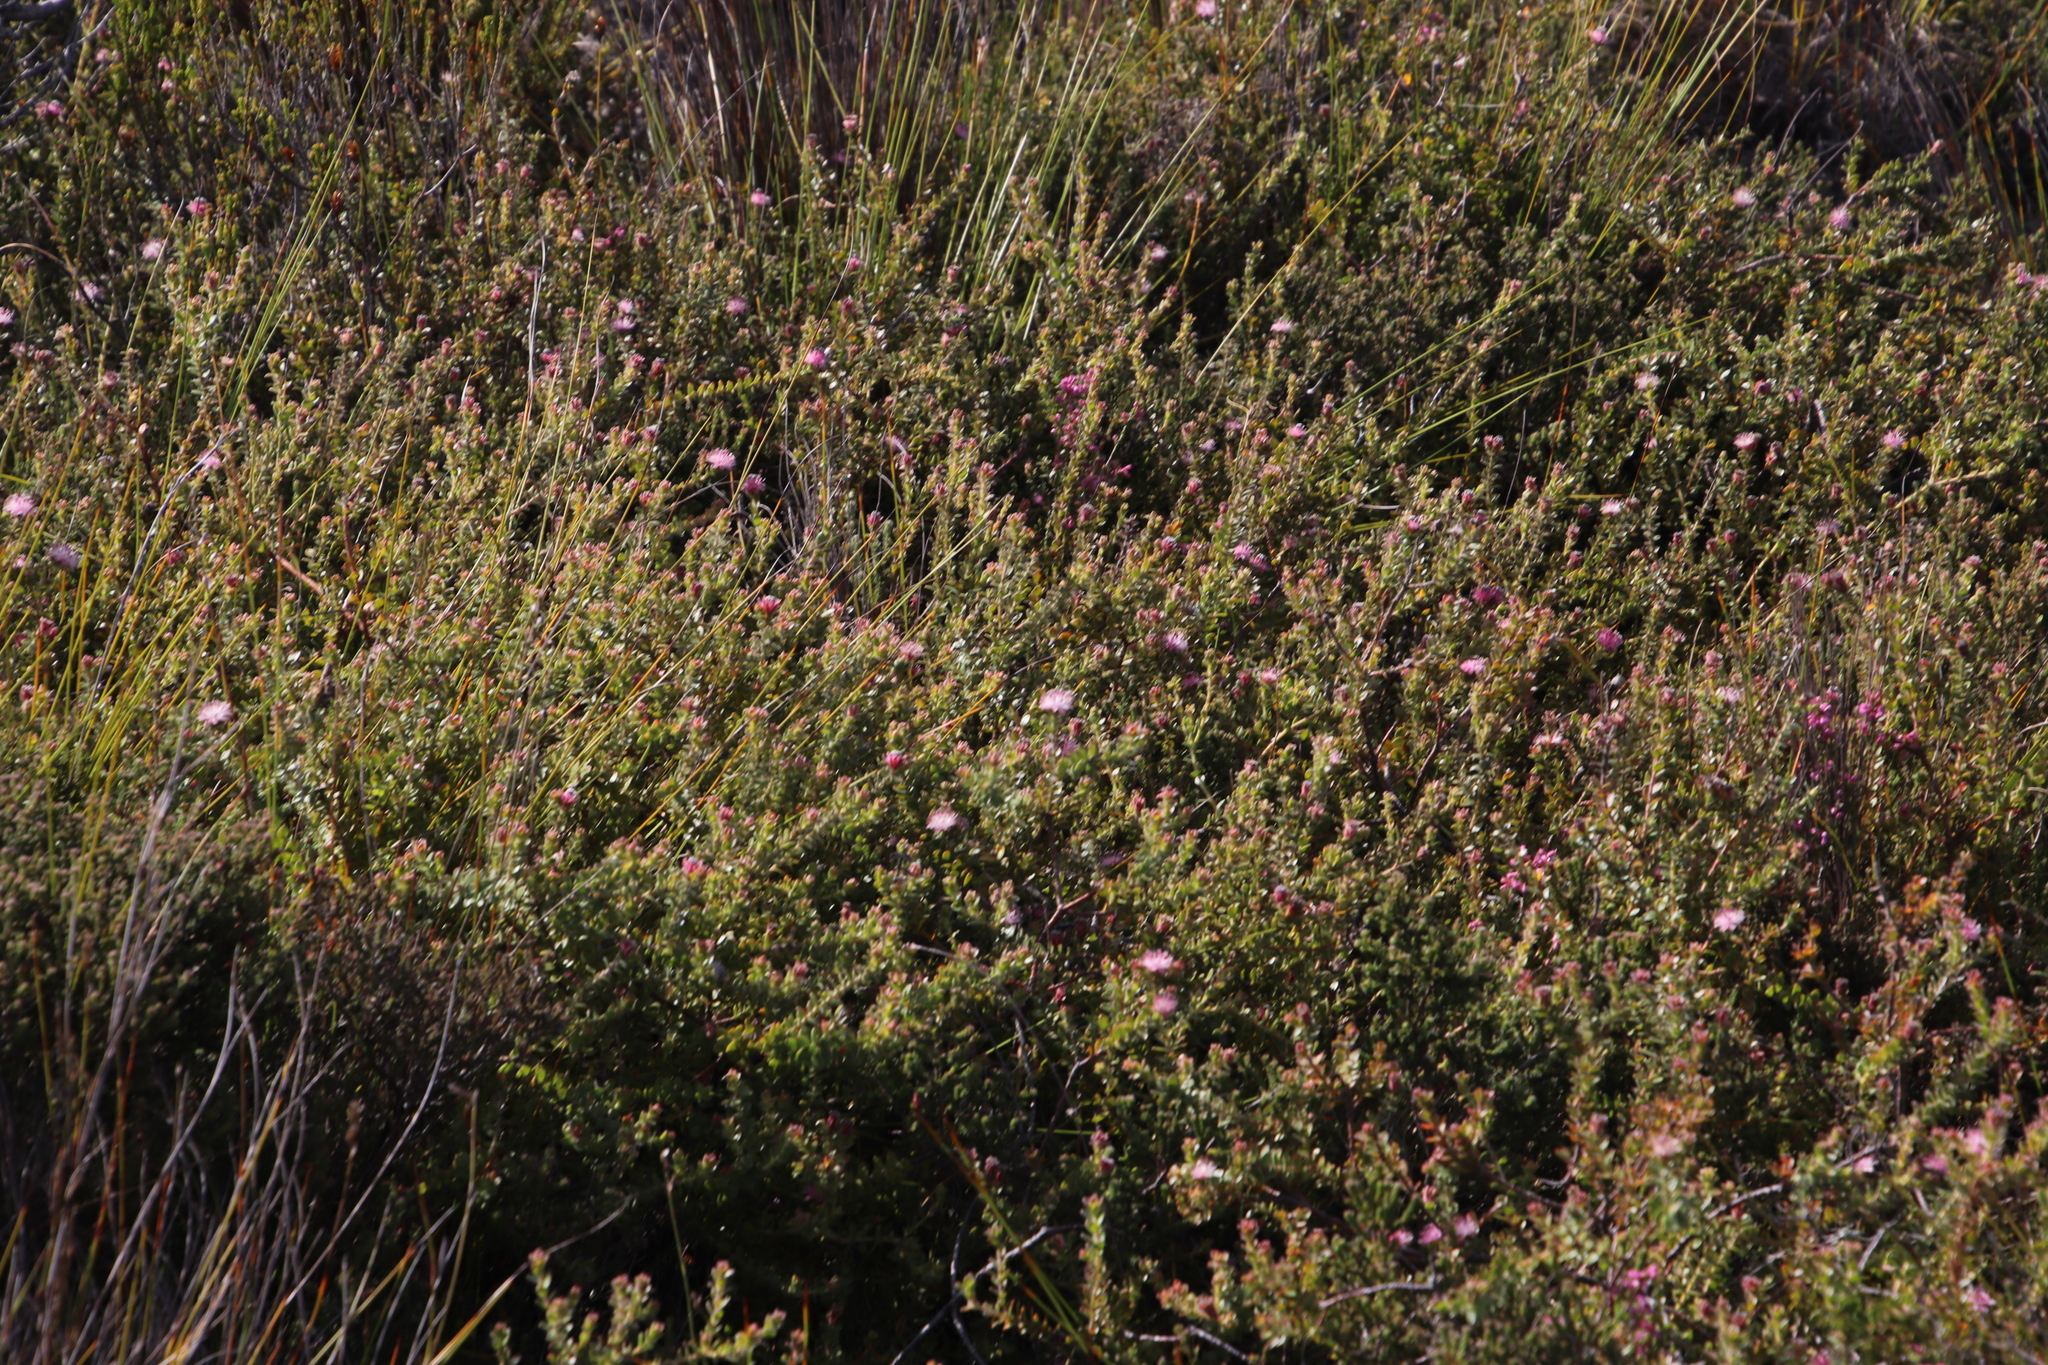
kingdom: Plantae
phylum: Tracheophyta
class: Magnoliopsida
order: Proteales
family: Proteaceae
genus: Diastella
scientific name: Diastella divaricata
